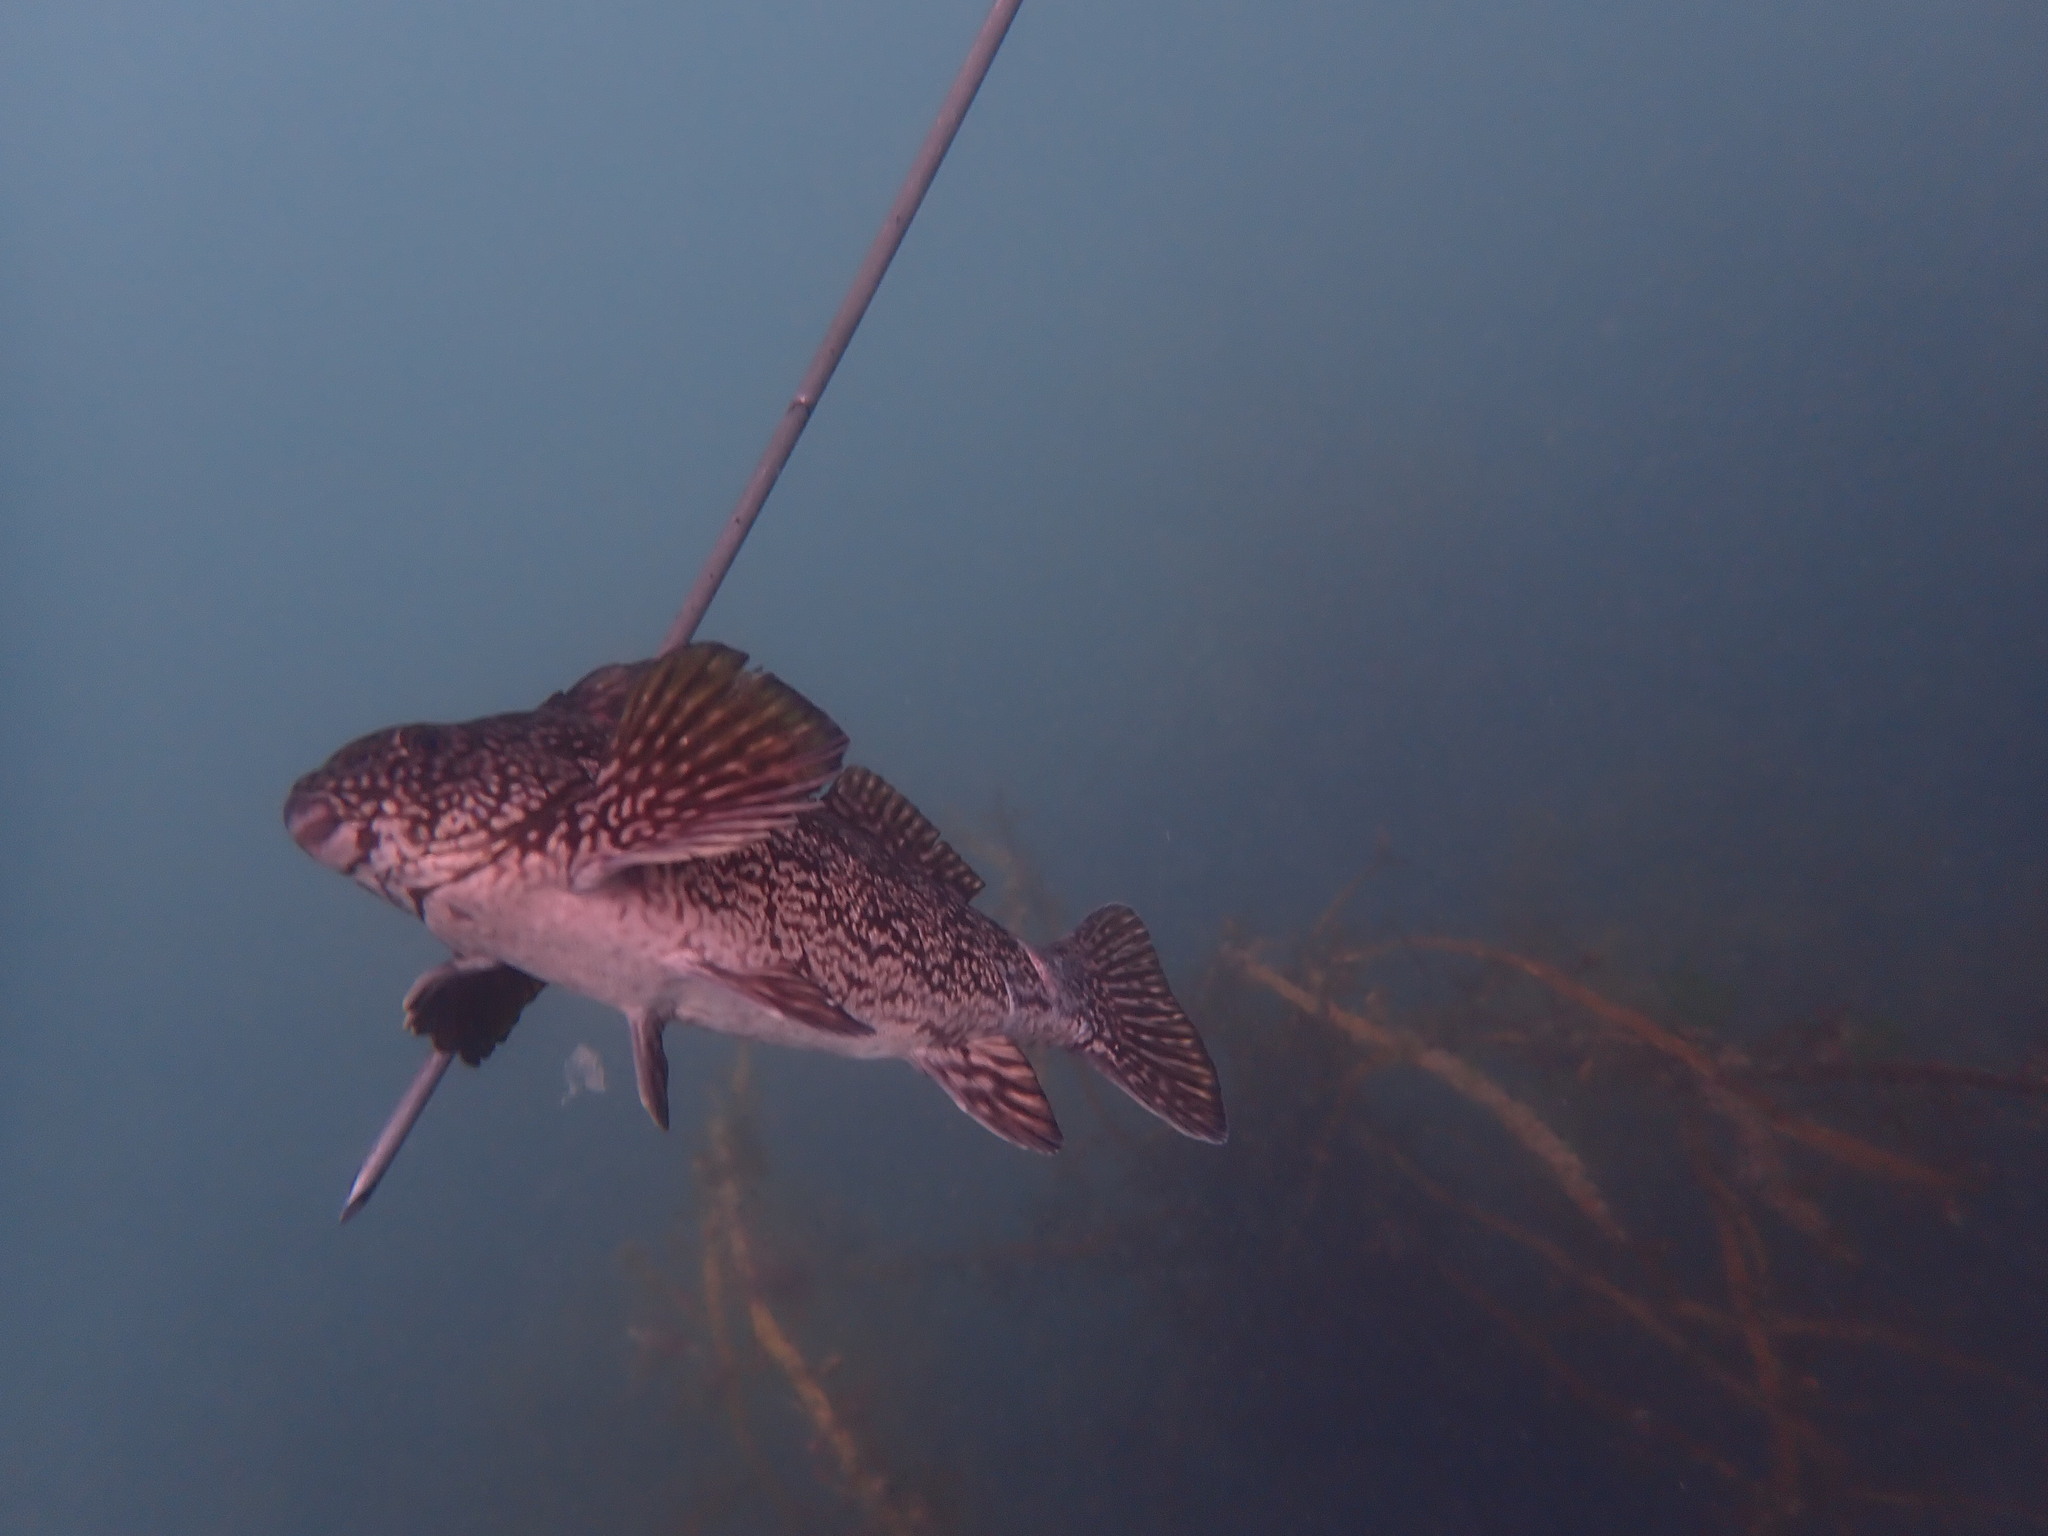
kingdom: Animalia
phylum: Chordata
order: Perciformes
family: Aplodactylidae
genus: Aplodactylus
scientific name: Aplodactylus arctidens
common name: Marblefish
